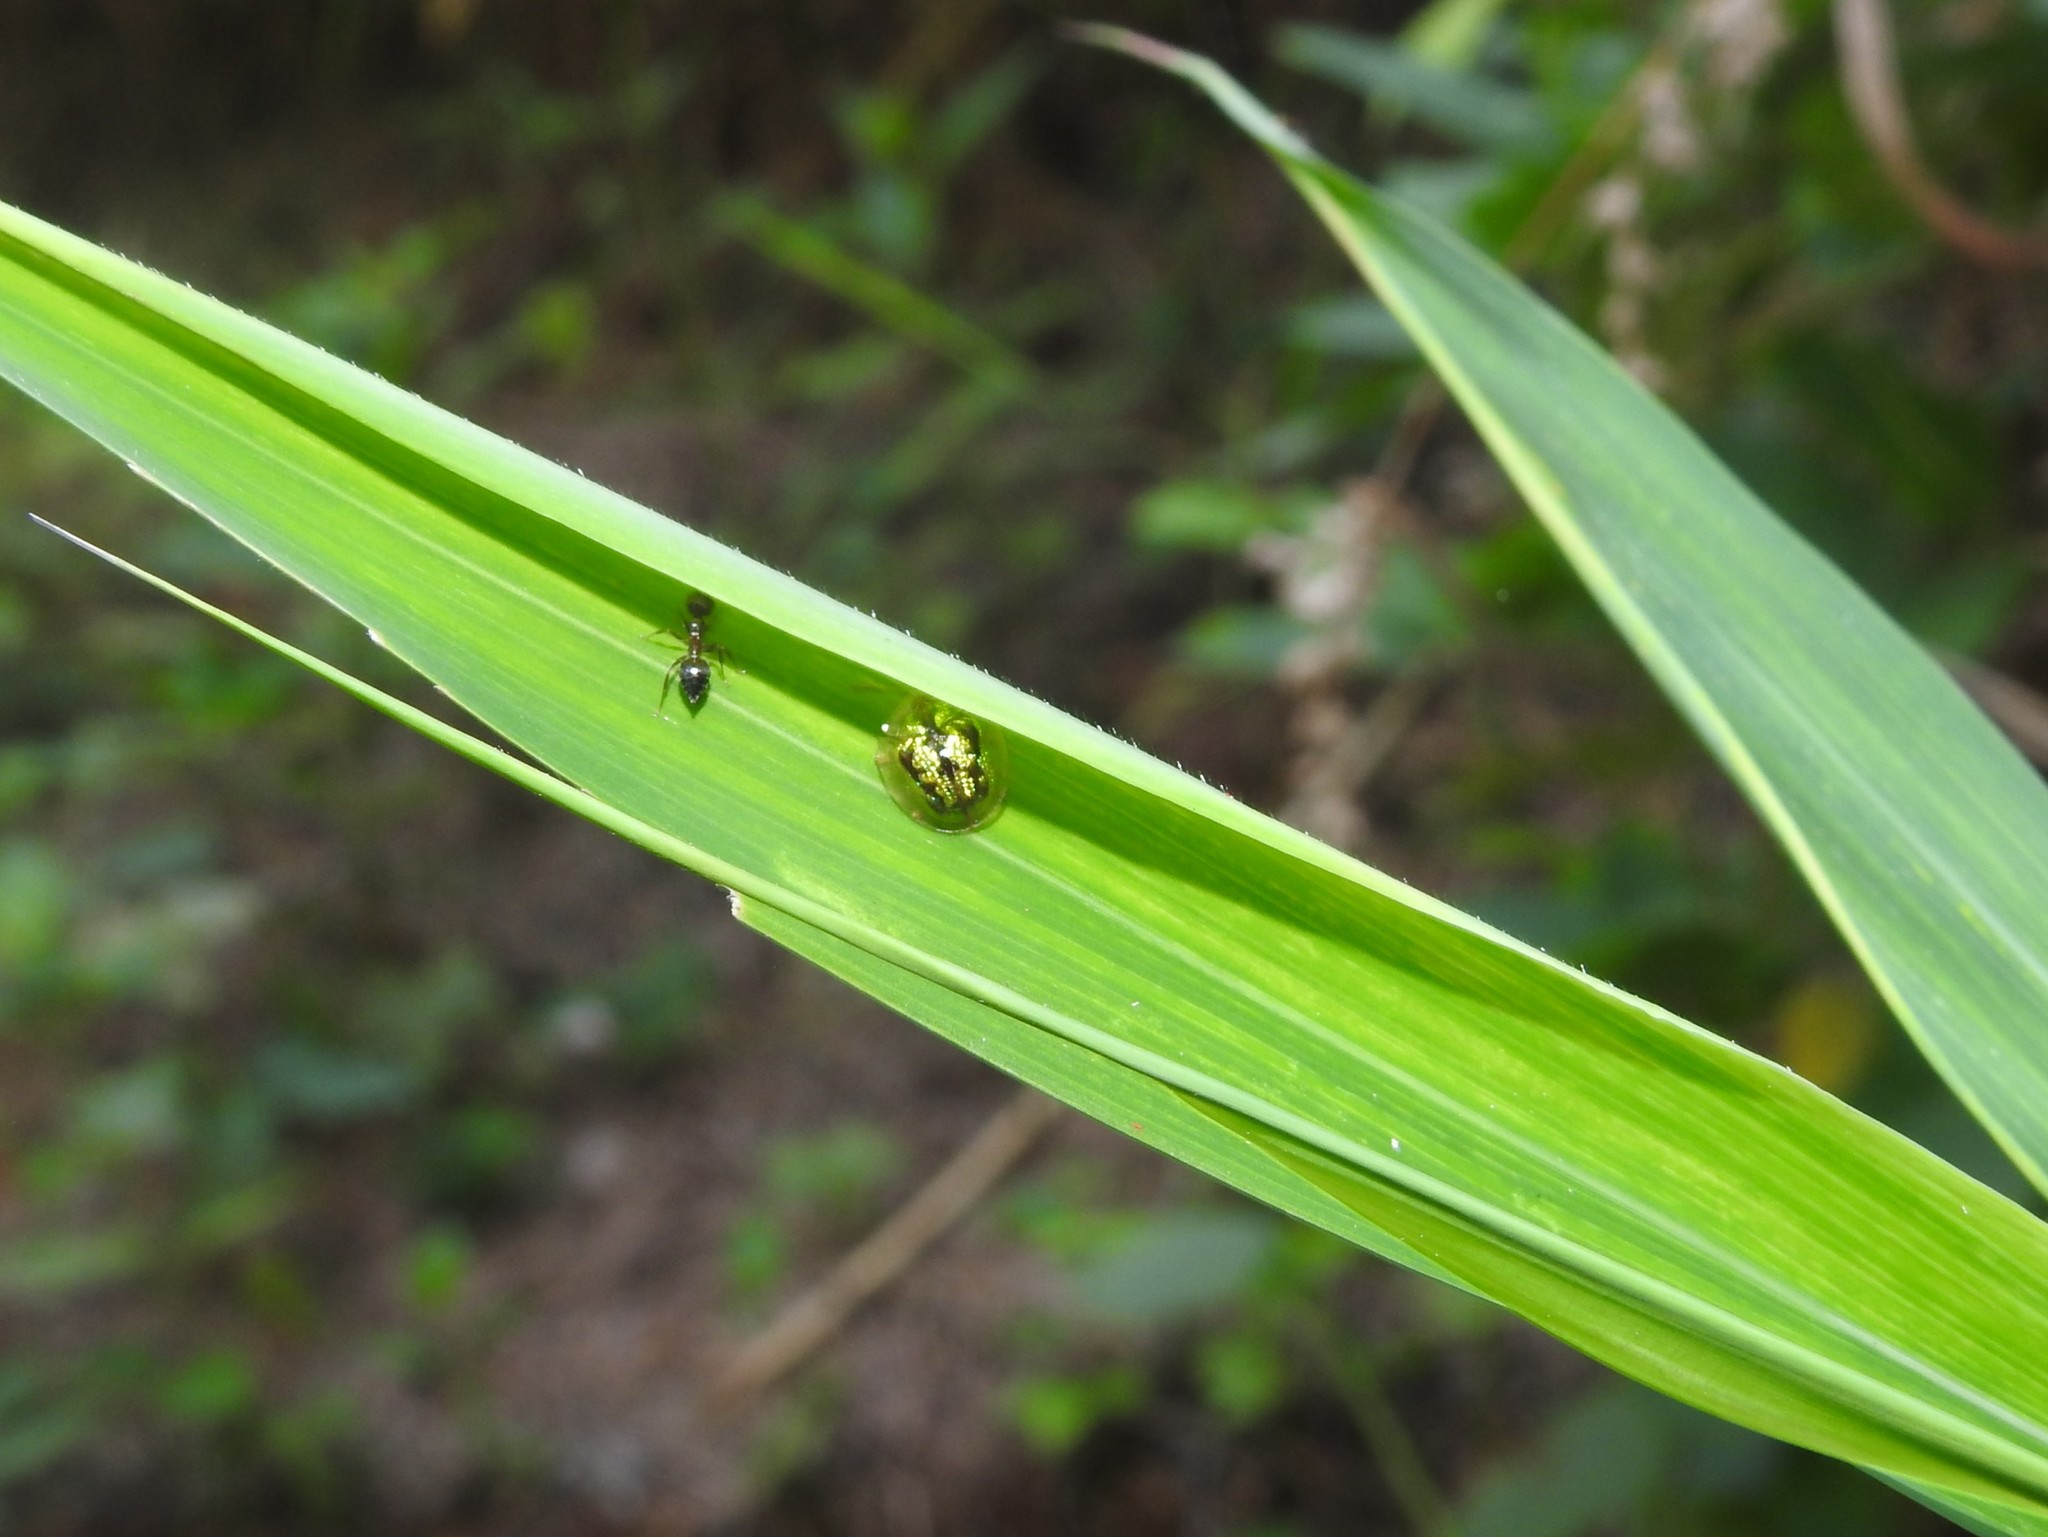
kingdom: Animalia
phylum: Arthropoda
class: Insecta
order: Coleoptera
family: Chrysomelidae
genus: Cassida
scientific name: Cassida circumdata
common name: Tortoise beetle
